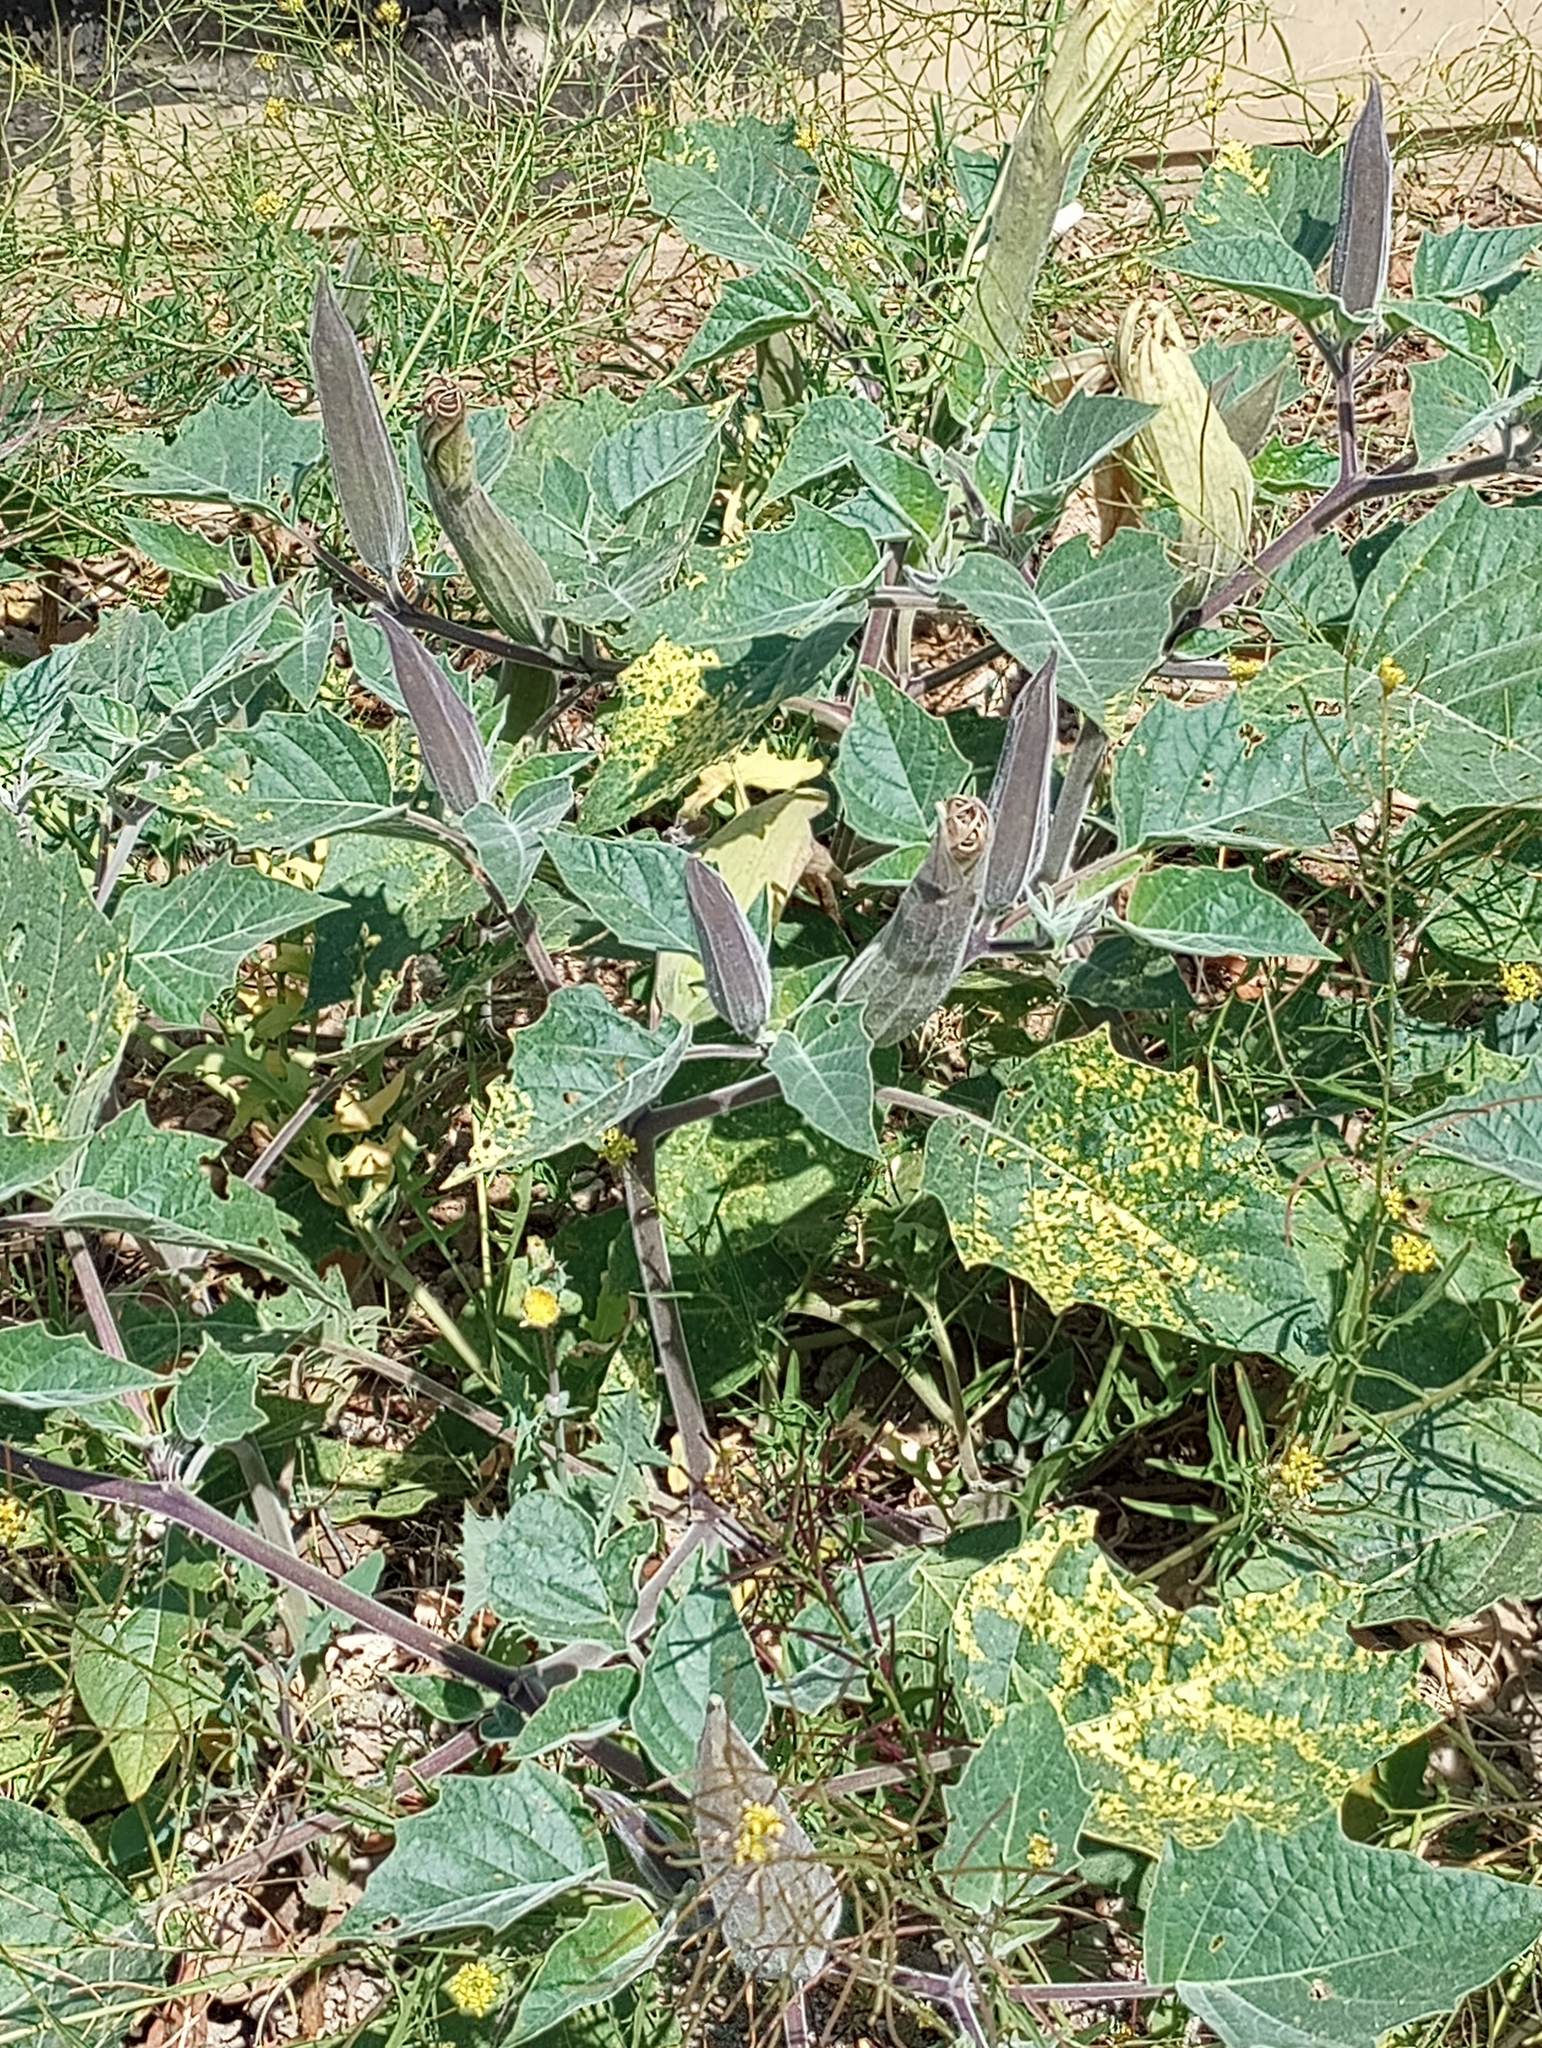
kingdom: Plantae
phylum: Tracheophyta
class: Magnoliopsida
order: Solanales
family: Solanaceae
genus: Datura
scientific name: Datura wrightii
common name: Sacred thorn-apple
